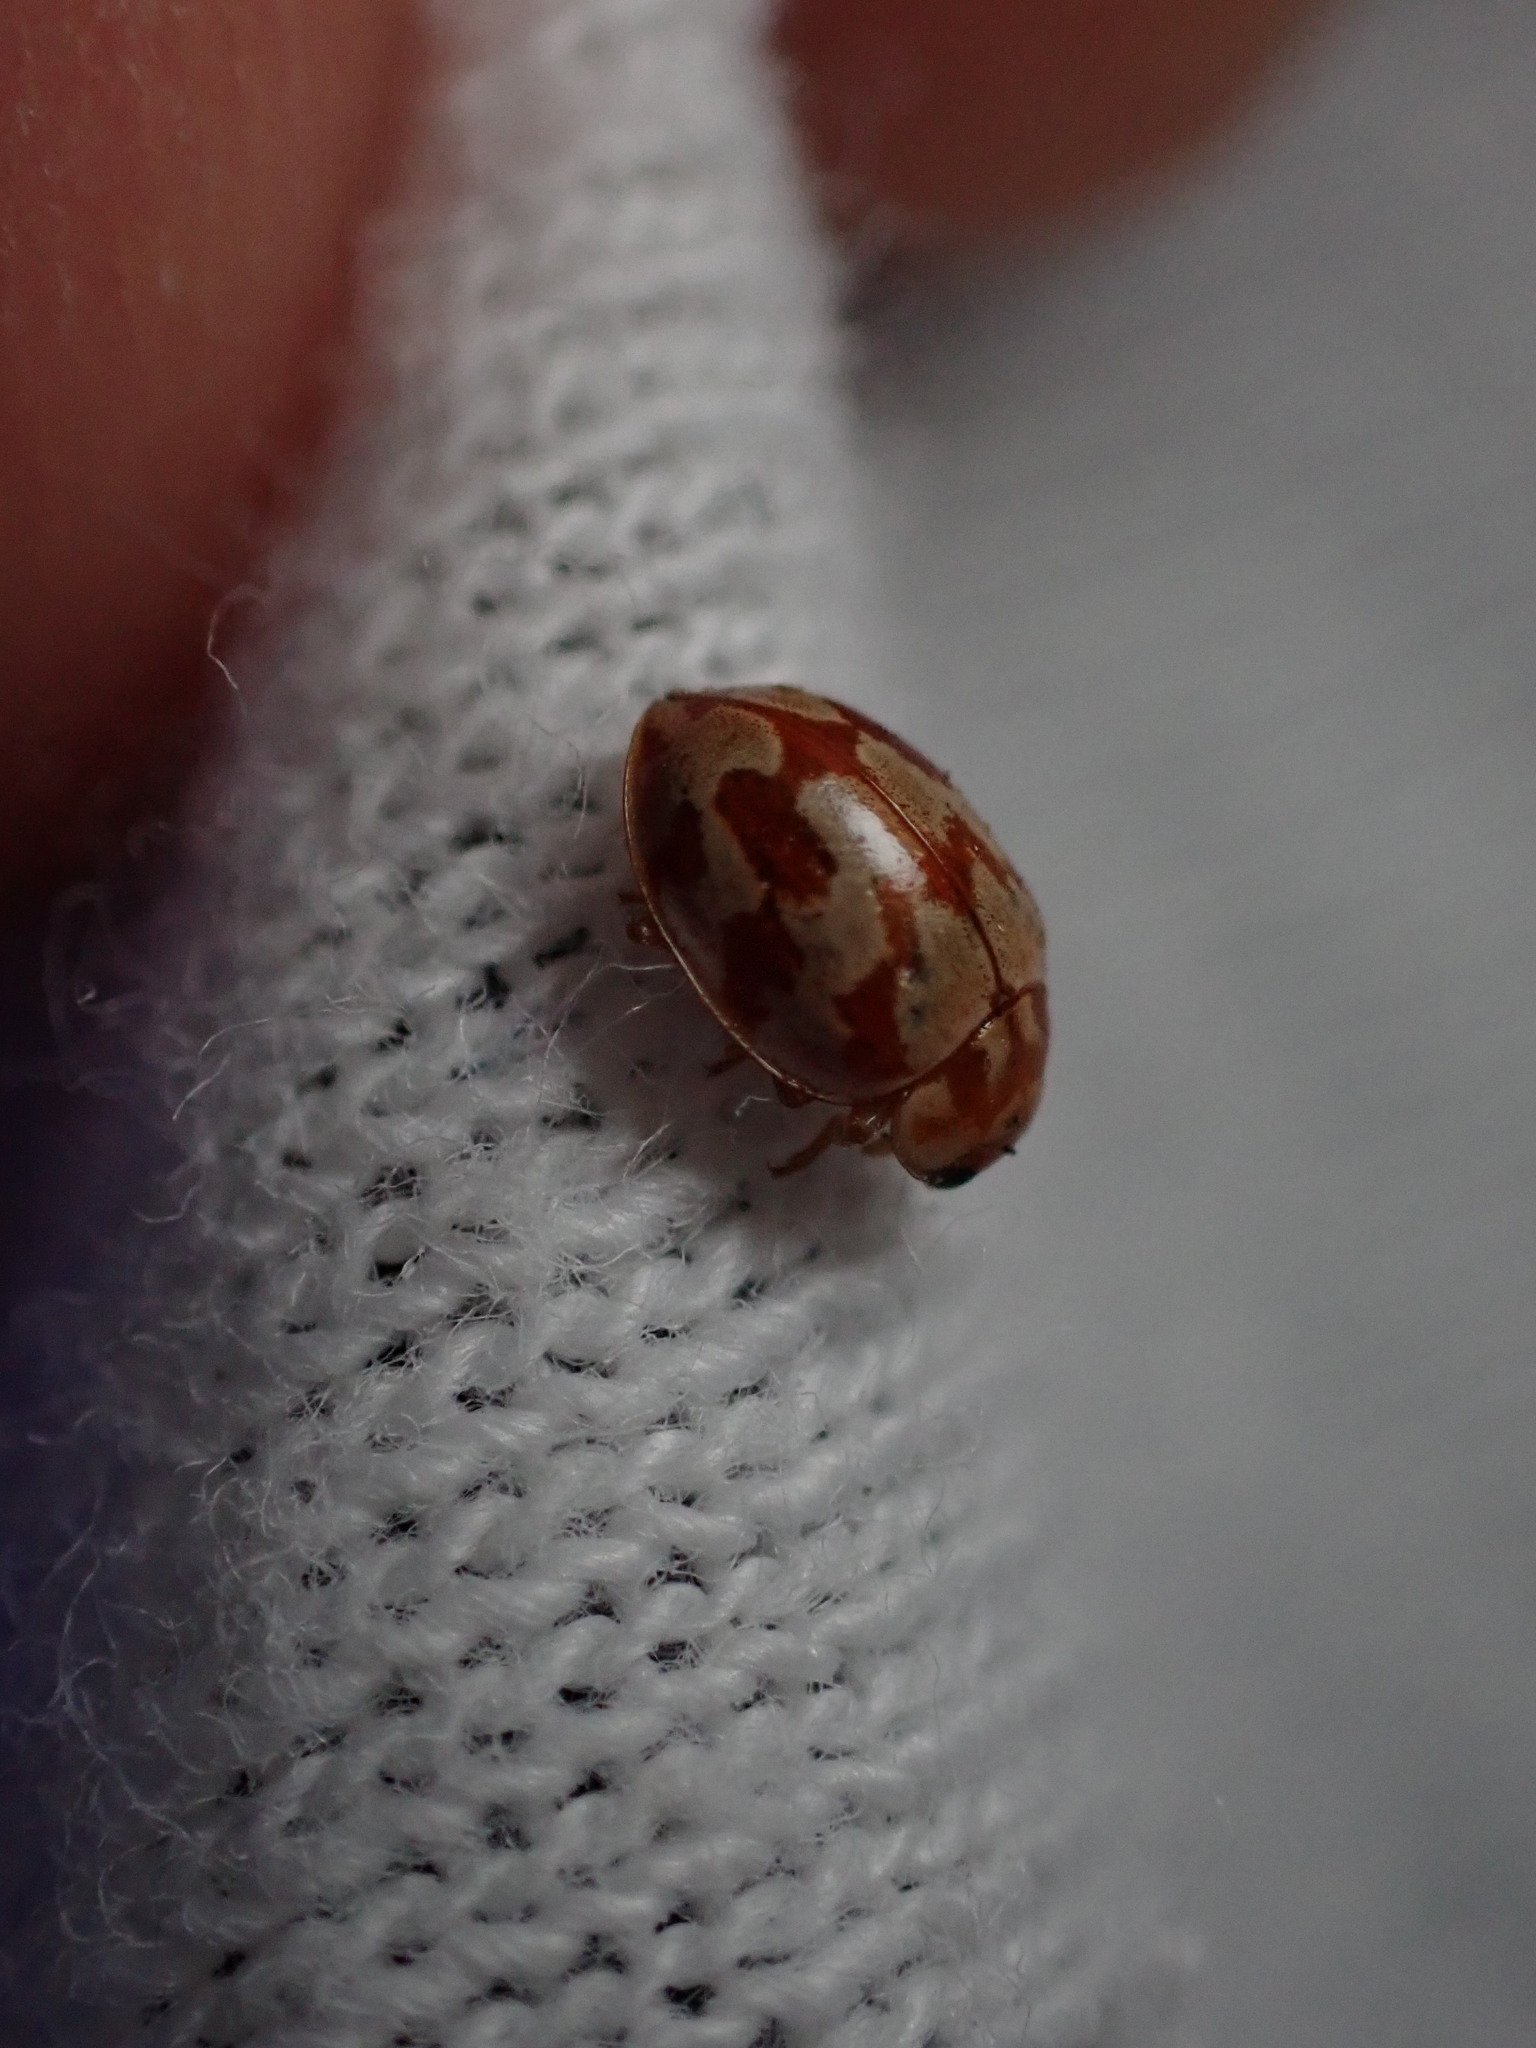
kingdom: Animalia
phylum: Arthropoda
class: Insecta
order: Coleoptera
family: Coccinellidae
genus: Myrrha
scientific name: Myrrha octodecimguttata
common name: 18-spot ladybird
